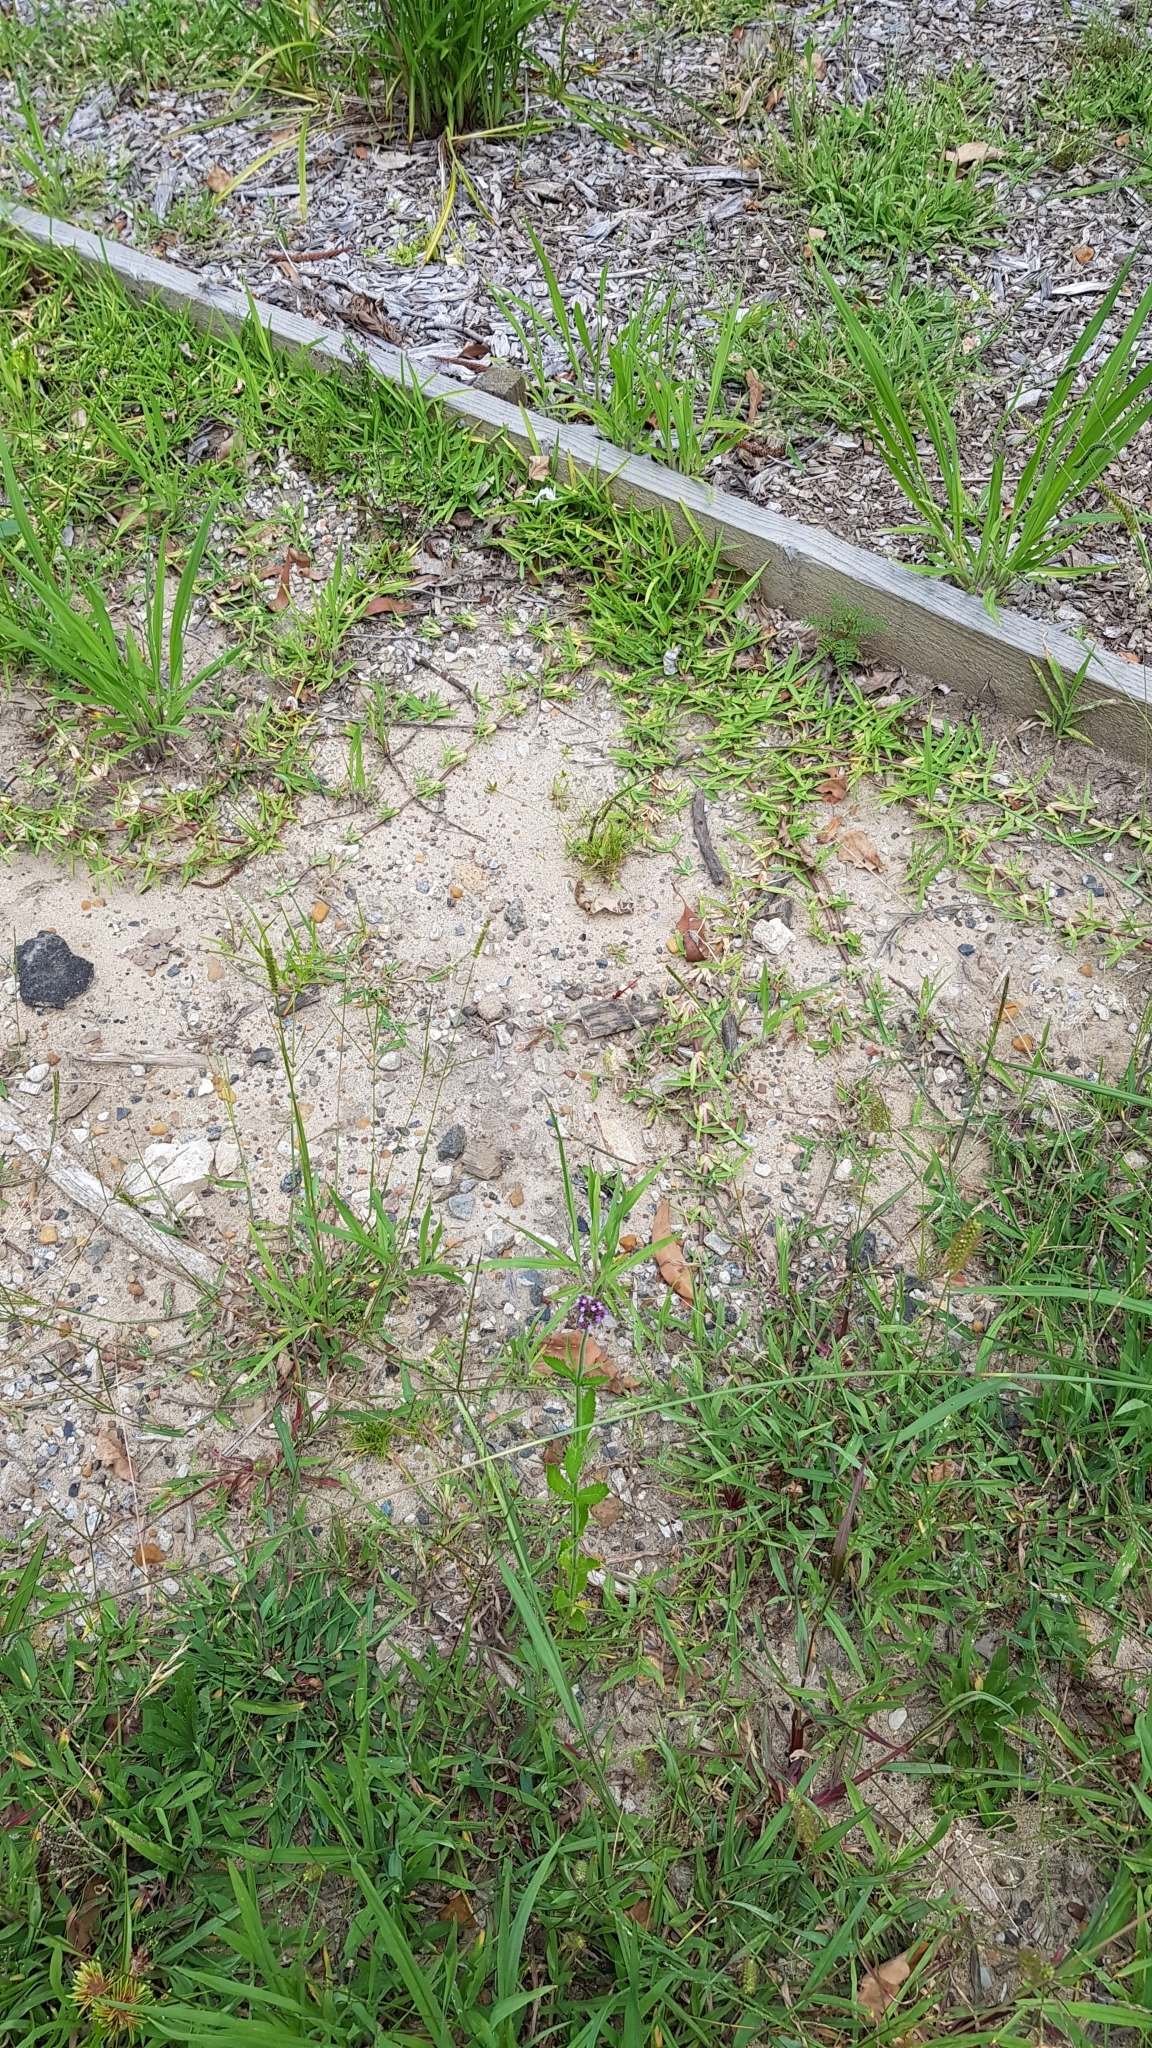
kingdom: Animalia
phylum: Arthropoda
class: Insecta
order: Odonata
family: Libellulidae
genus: Diplacodes
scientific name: Diplacodes haematodes
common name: Scarlet percher
